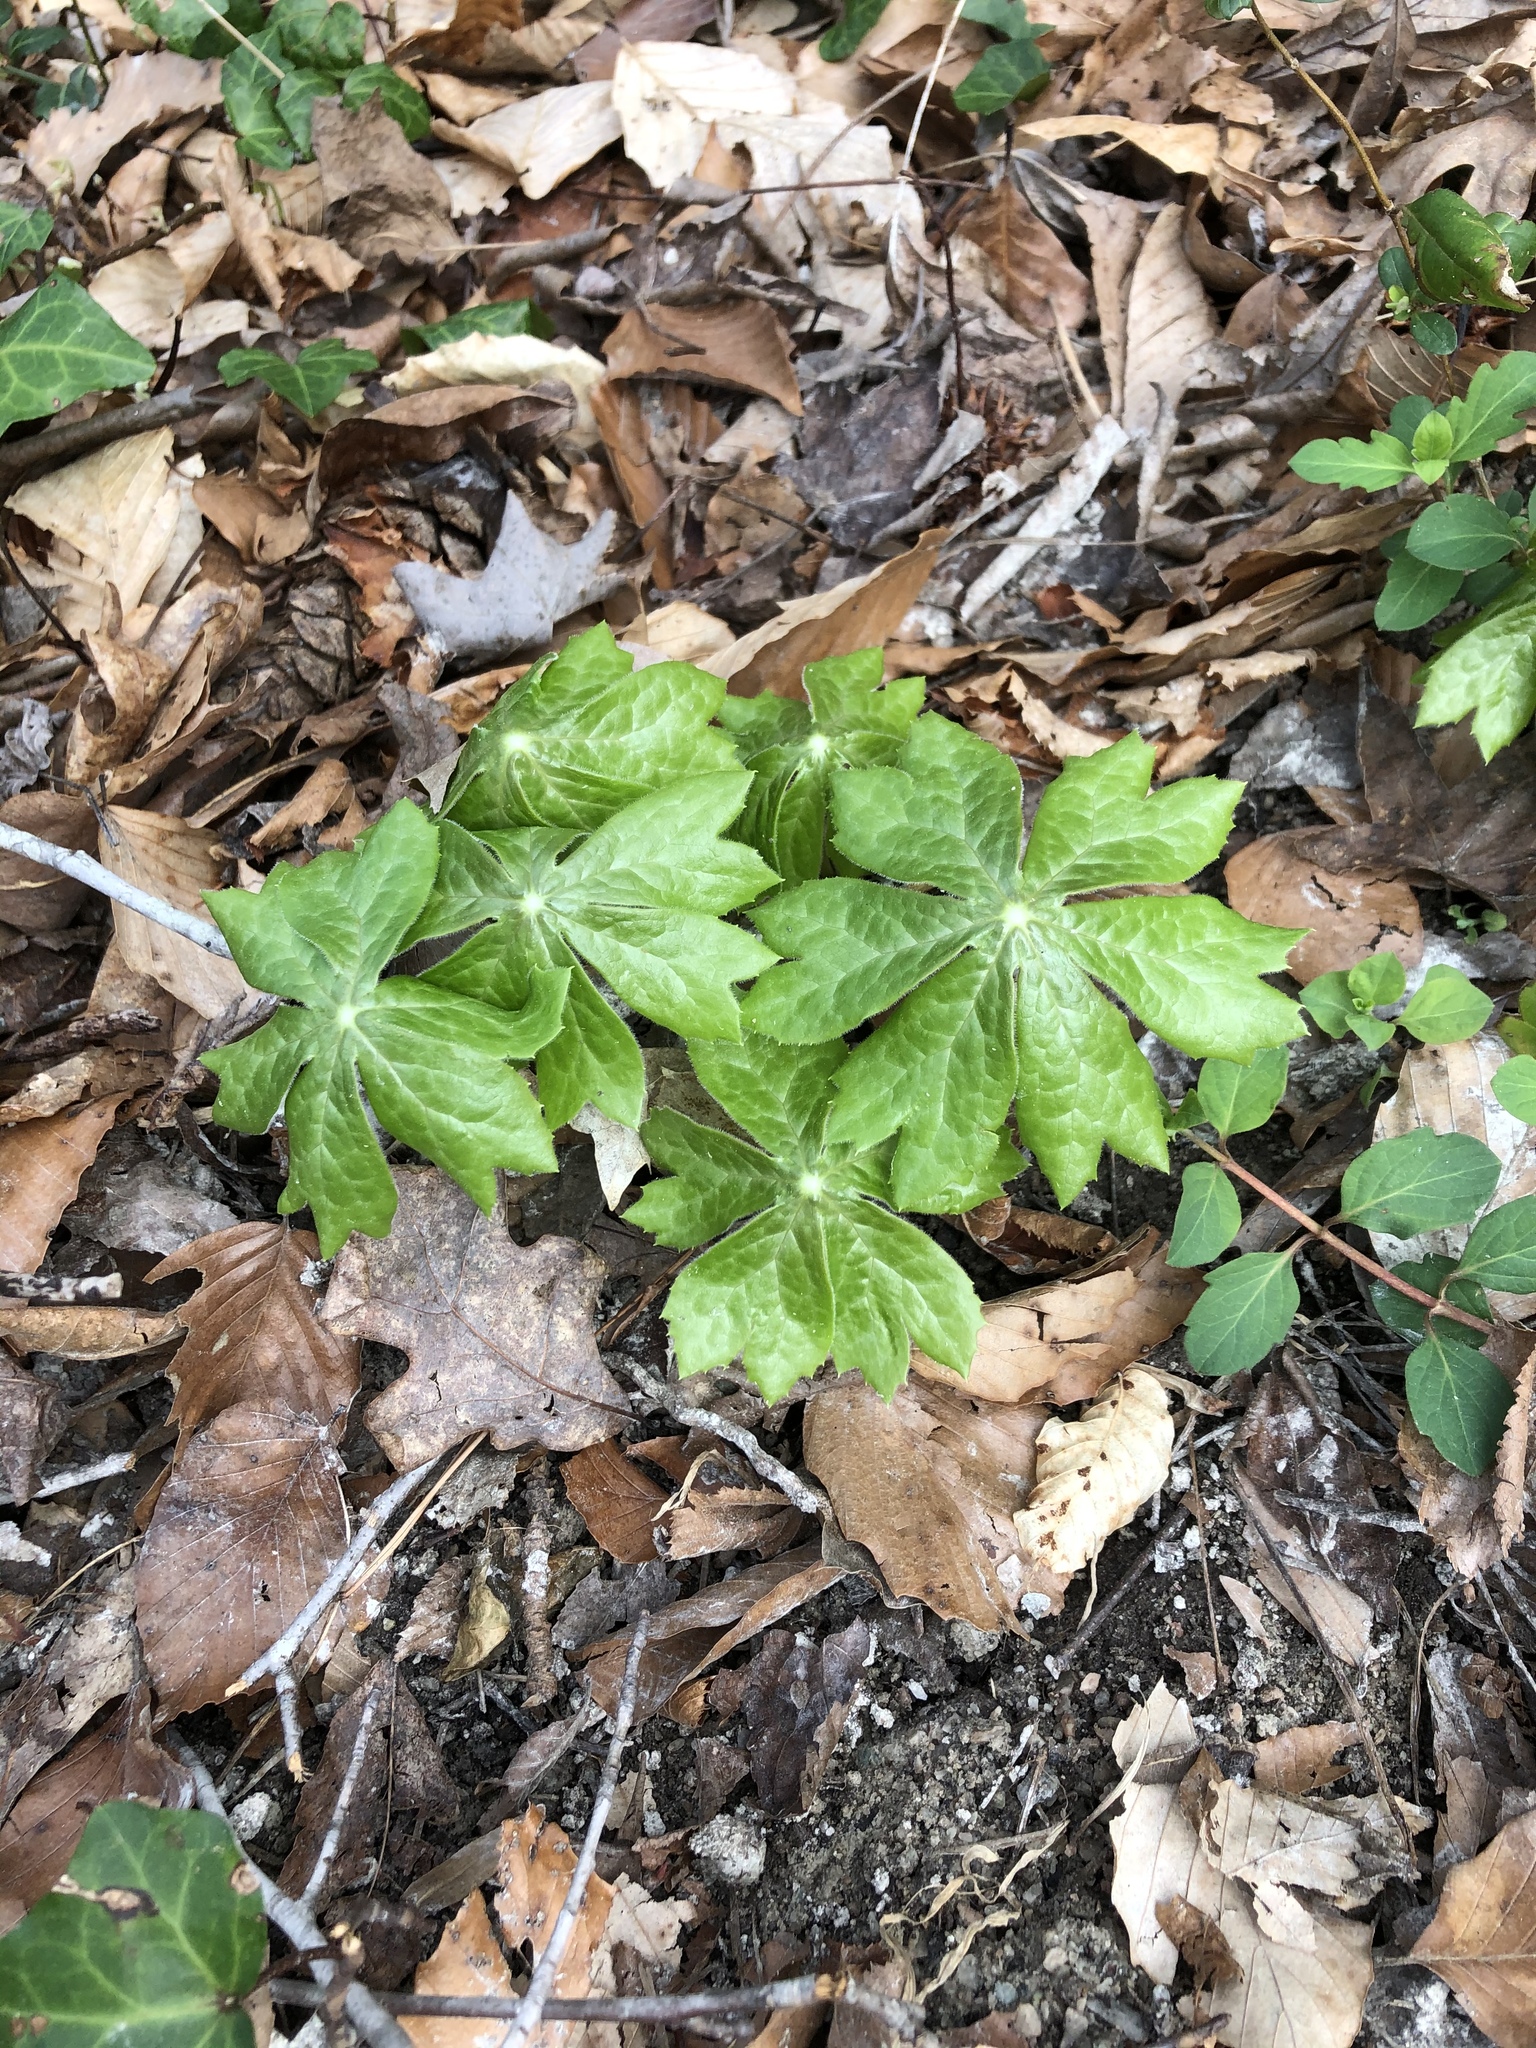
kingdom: Plantae
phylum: Tracheophyta
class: Magnoliopsida
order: Ranunculales
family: Berberidaceae
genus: Podophyllum
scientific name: Podophyllum peltatum
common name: Wild mandrake
